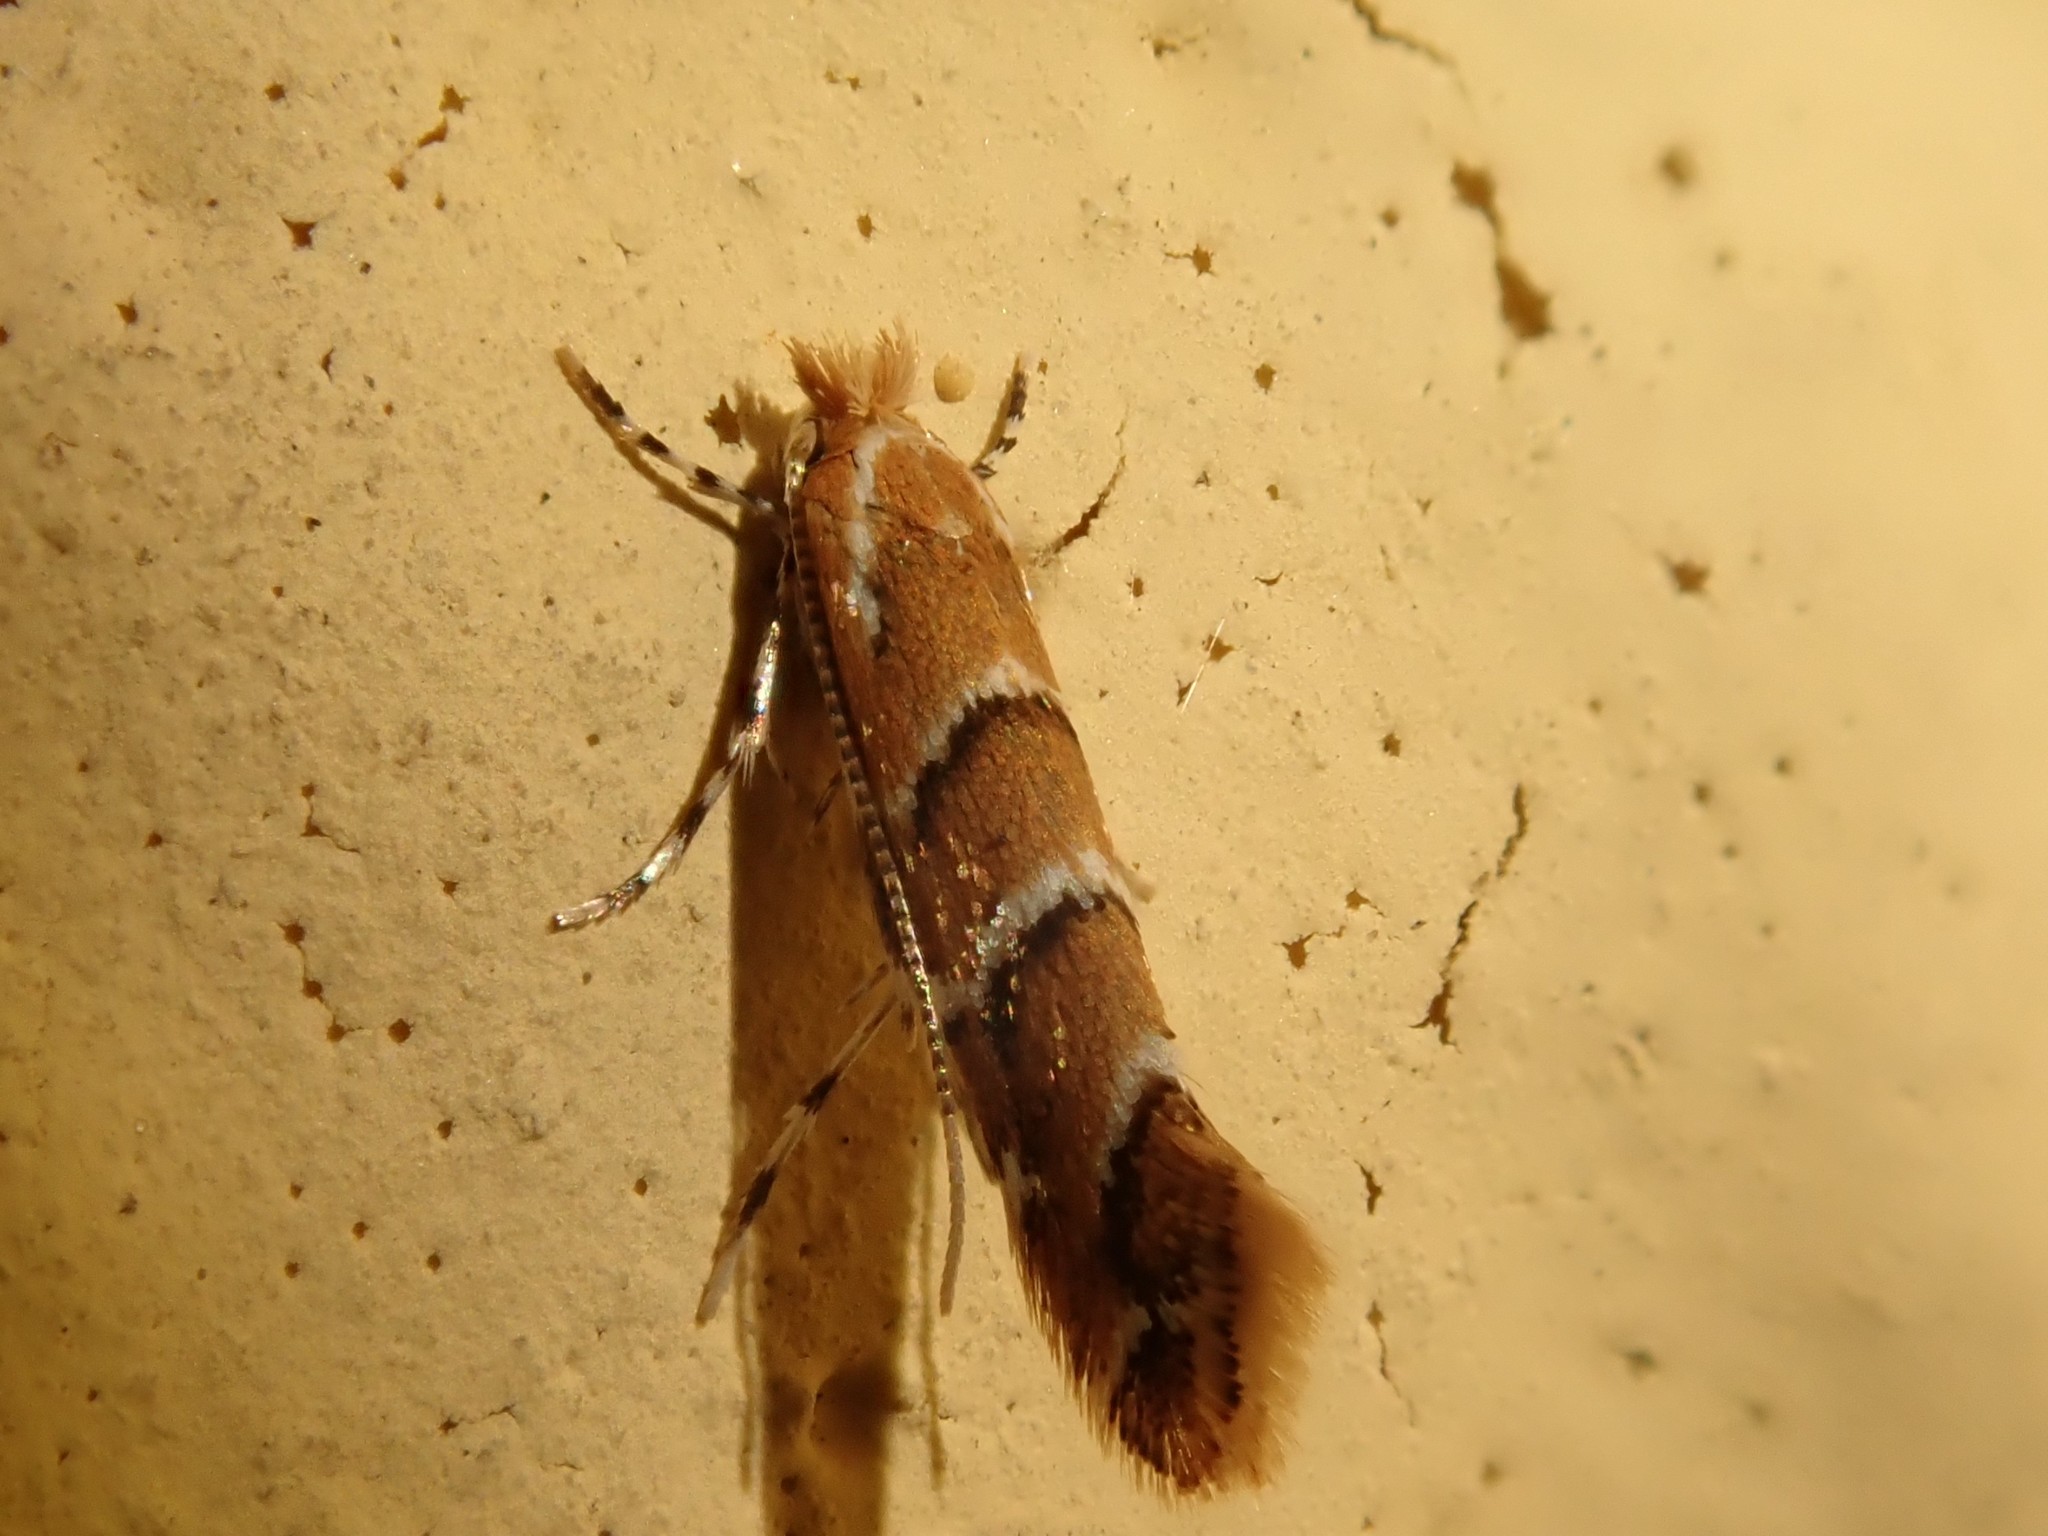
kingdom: Animalia
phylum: Arthropoda
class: Insecta
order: Lepidoptera
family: Gracillariidae
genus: Cameraria
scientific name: Cameraria ohridella
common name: Horse-chestnut leaf-miner
